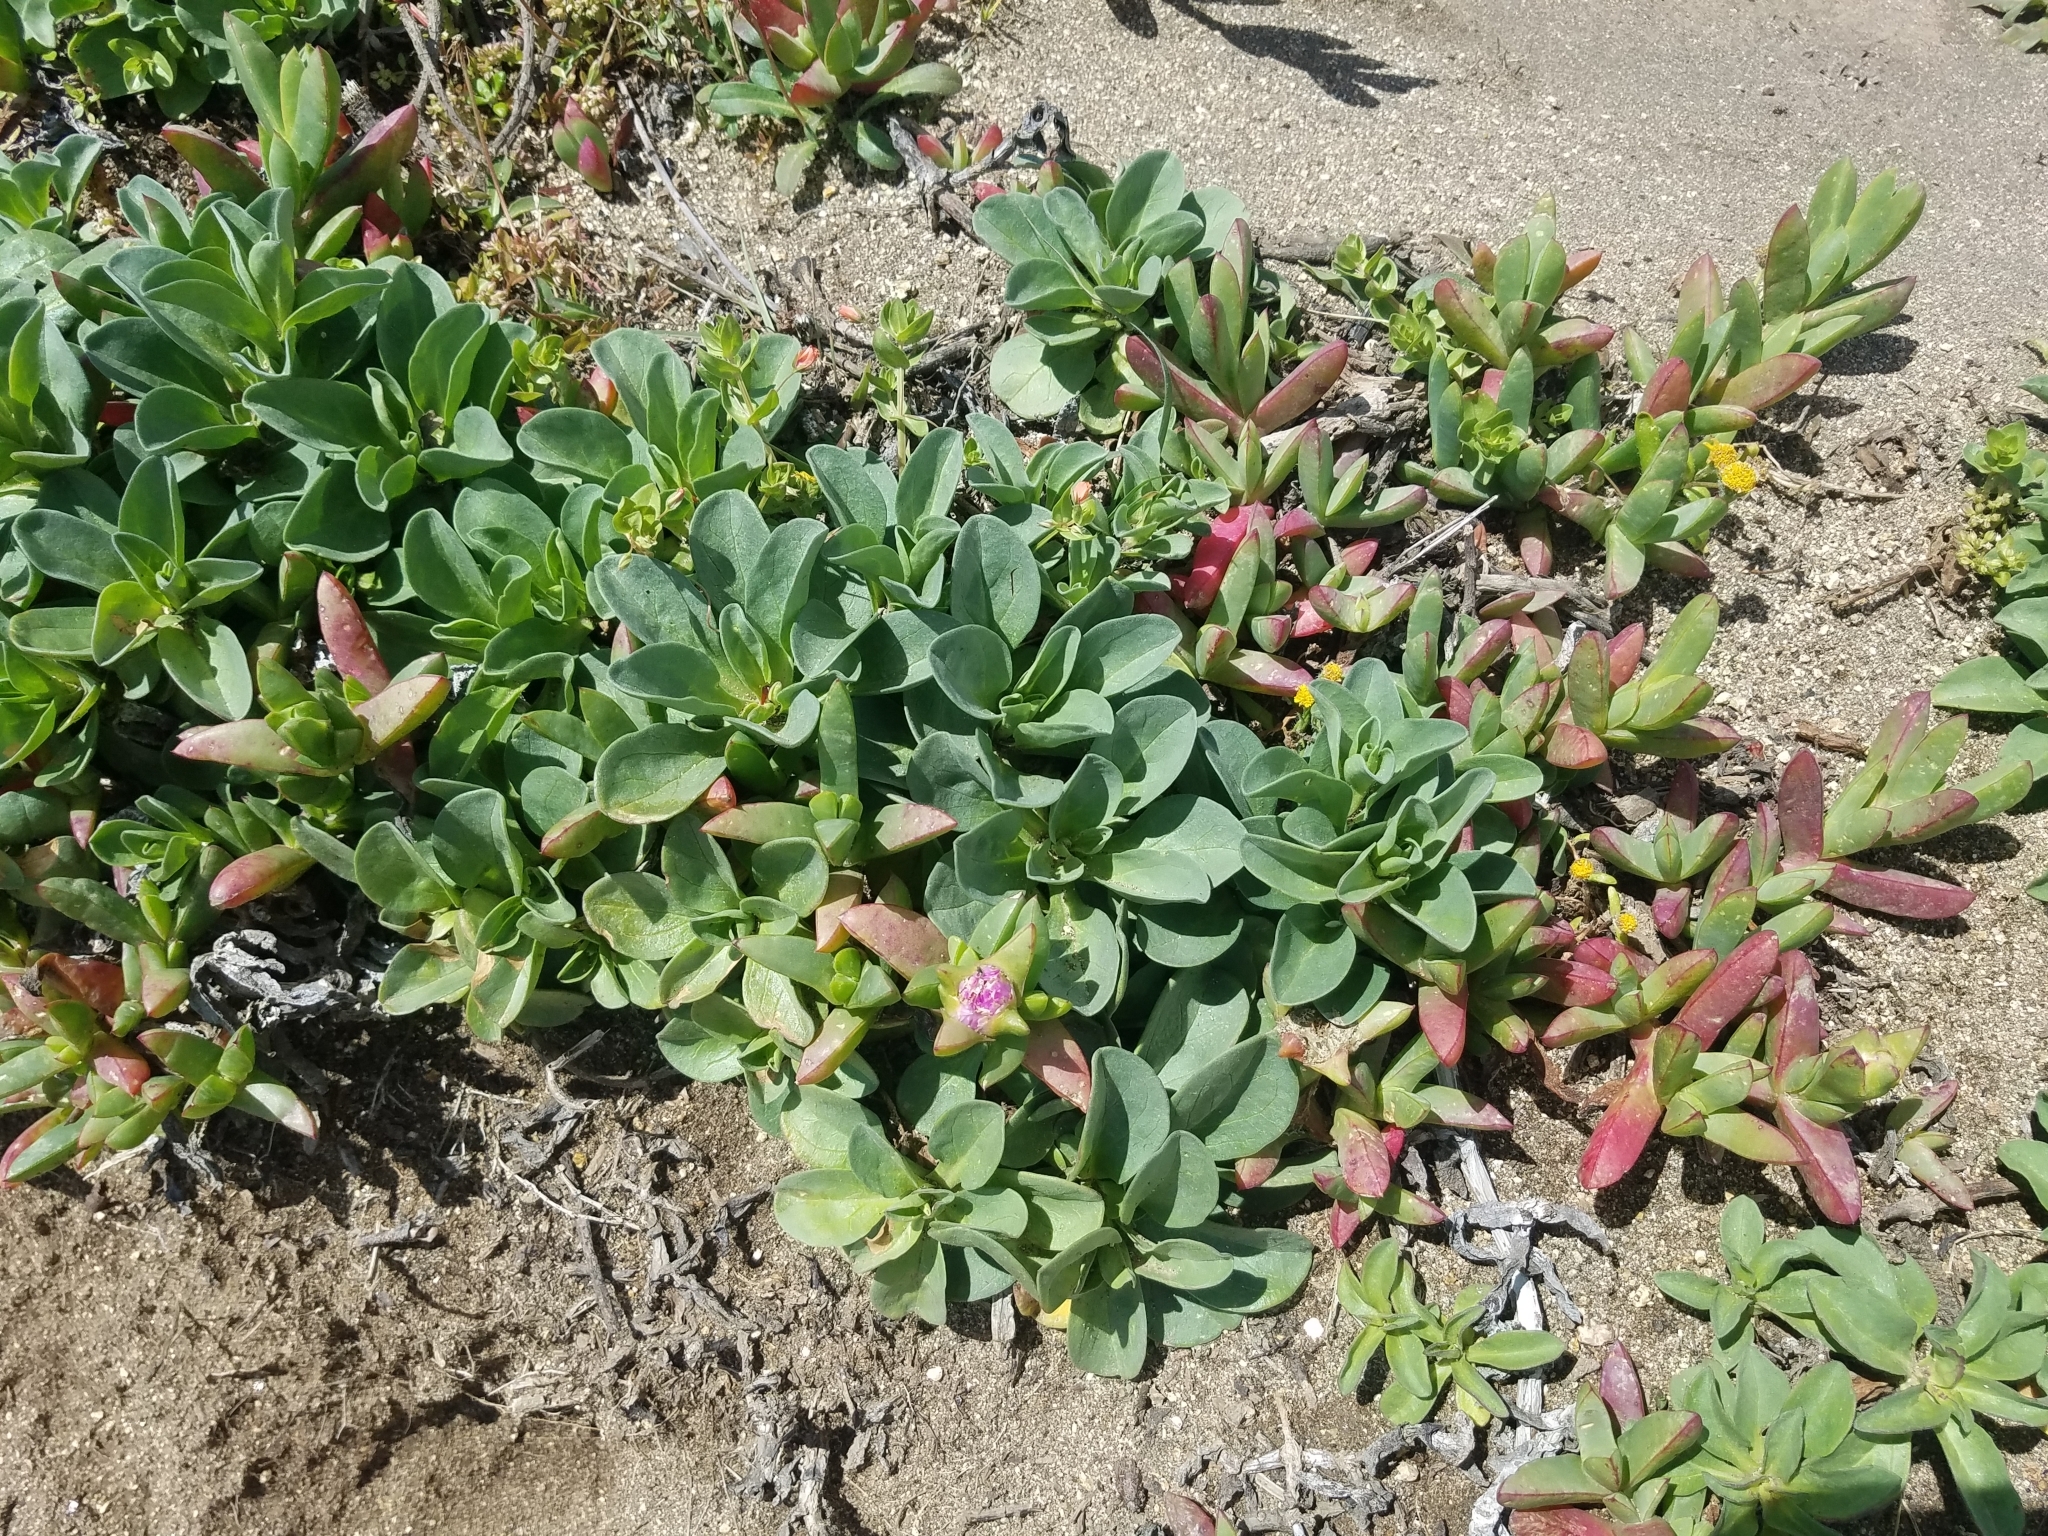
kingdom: Plantae
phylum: Tracheophyta
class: Magnoliopsida
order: Caryophyllales
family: Aizoaceae
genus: Carpobrotus
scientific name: Carpobrotus chilensis
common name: Sea fig
